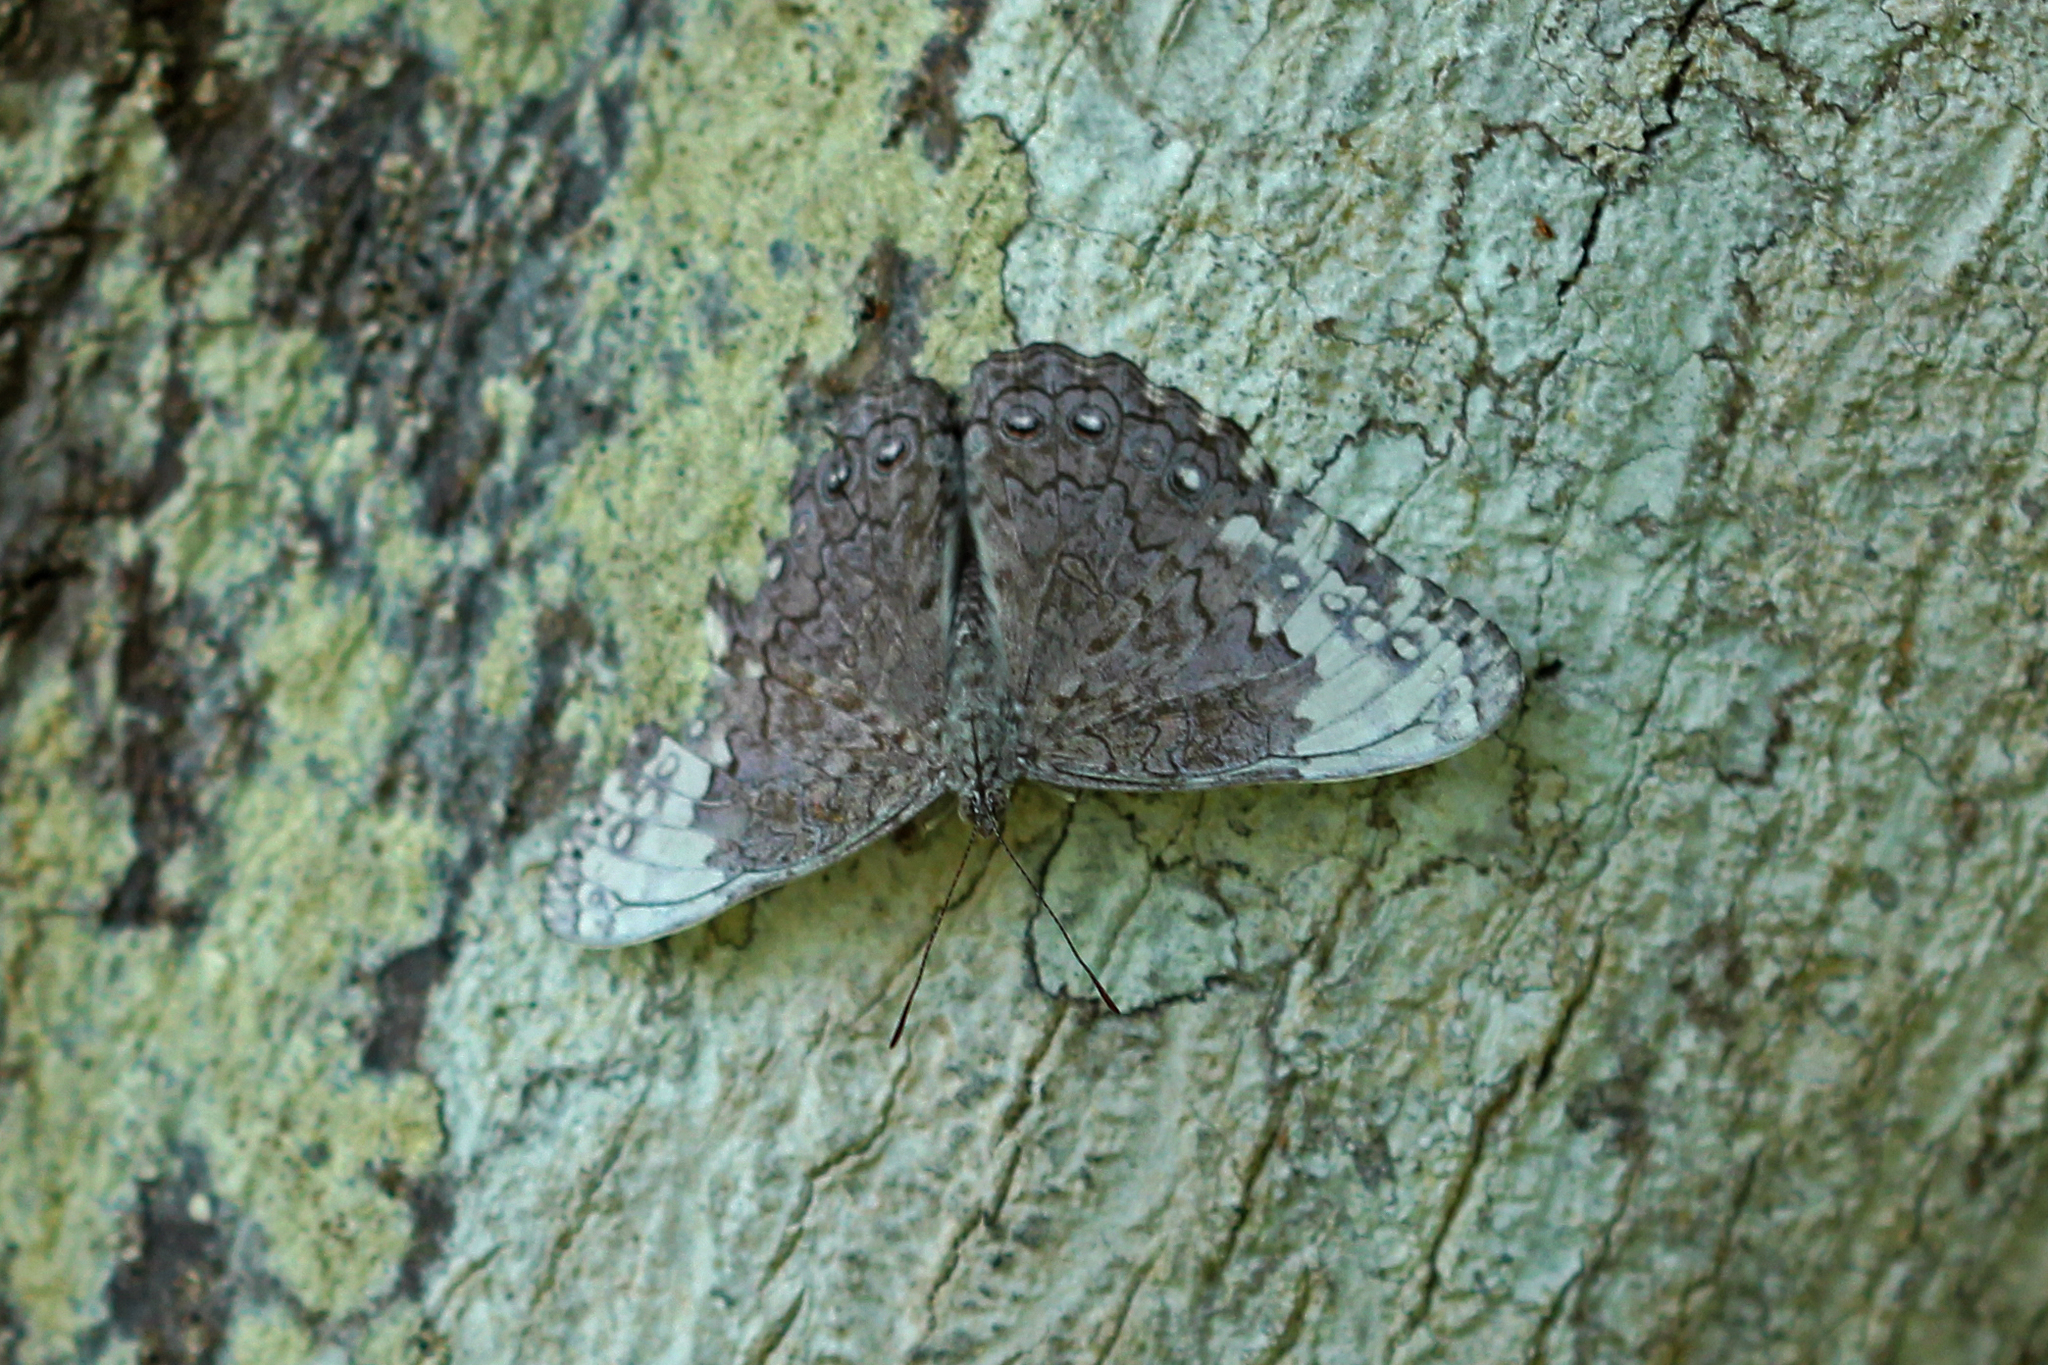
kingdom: Animalia
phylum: Arthropoda
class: Insecta
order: Lepidoptera
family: Nymphalidae
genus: Hamadryas
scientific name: Hamadryas glauconome
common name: Glaucous cracker
